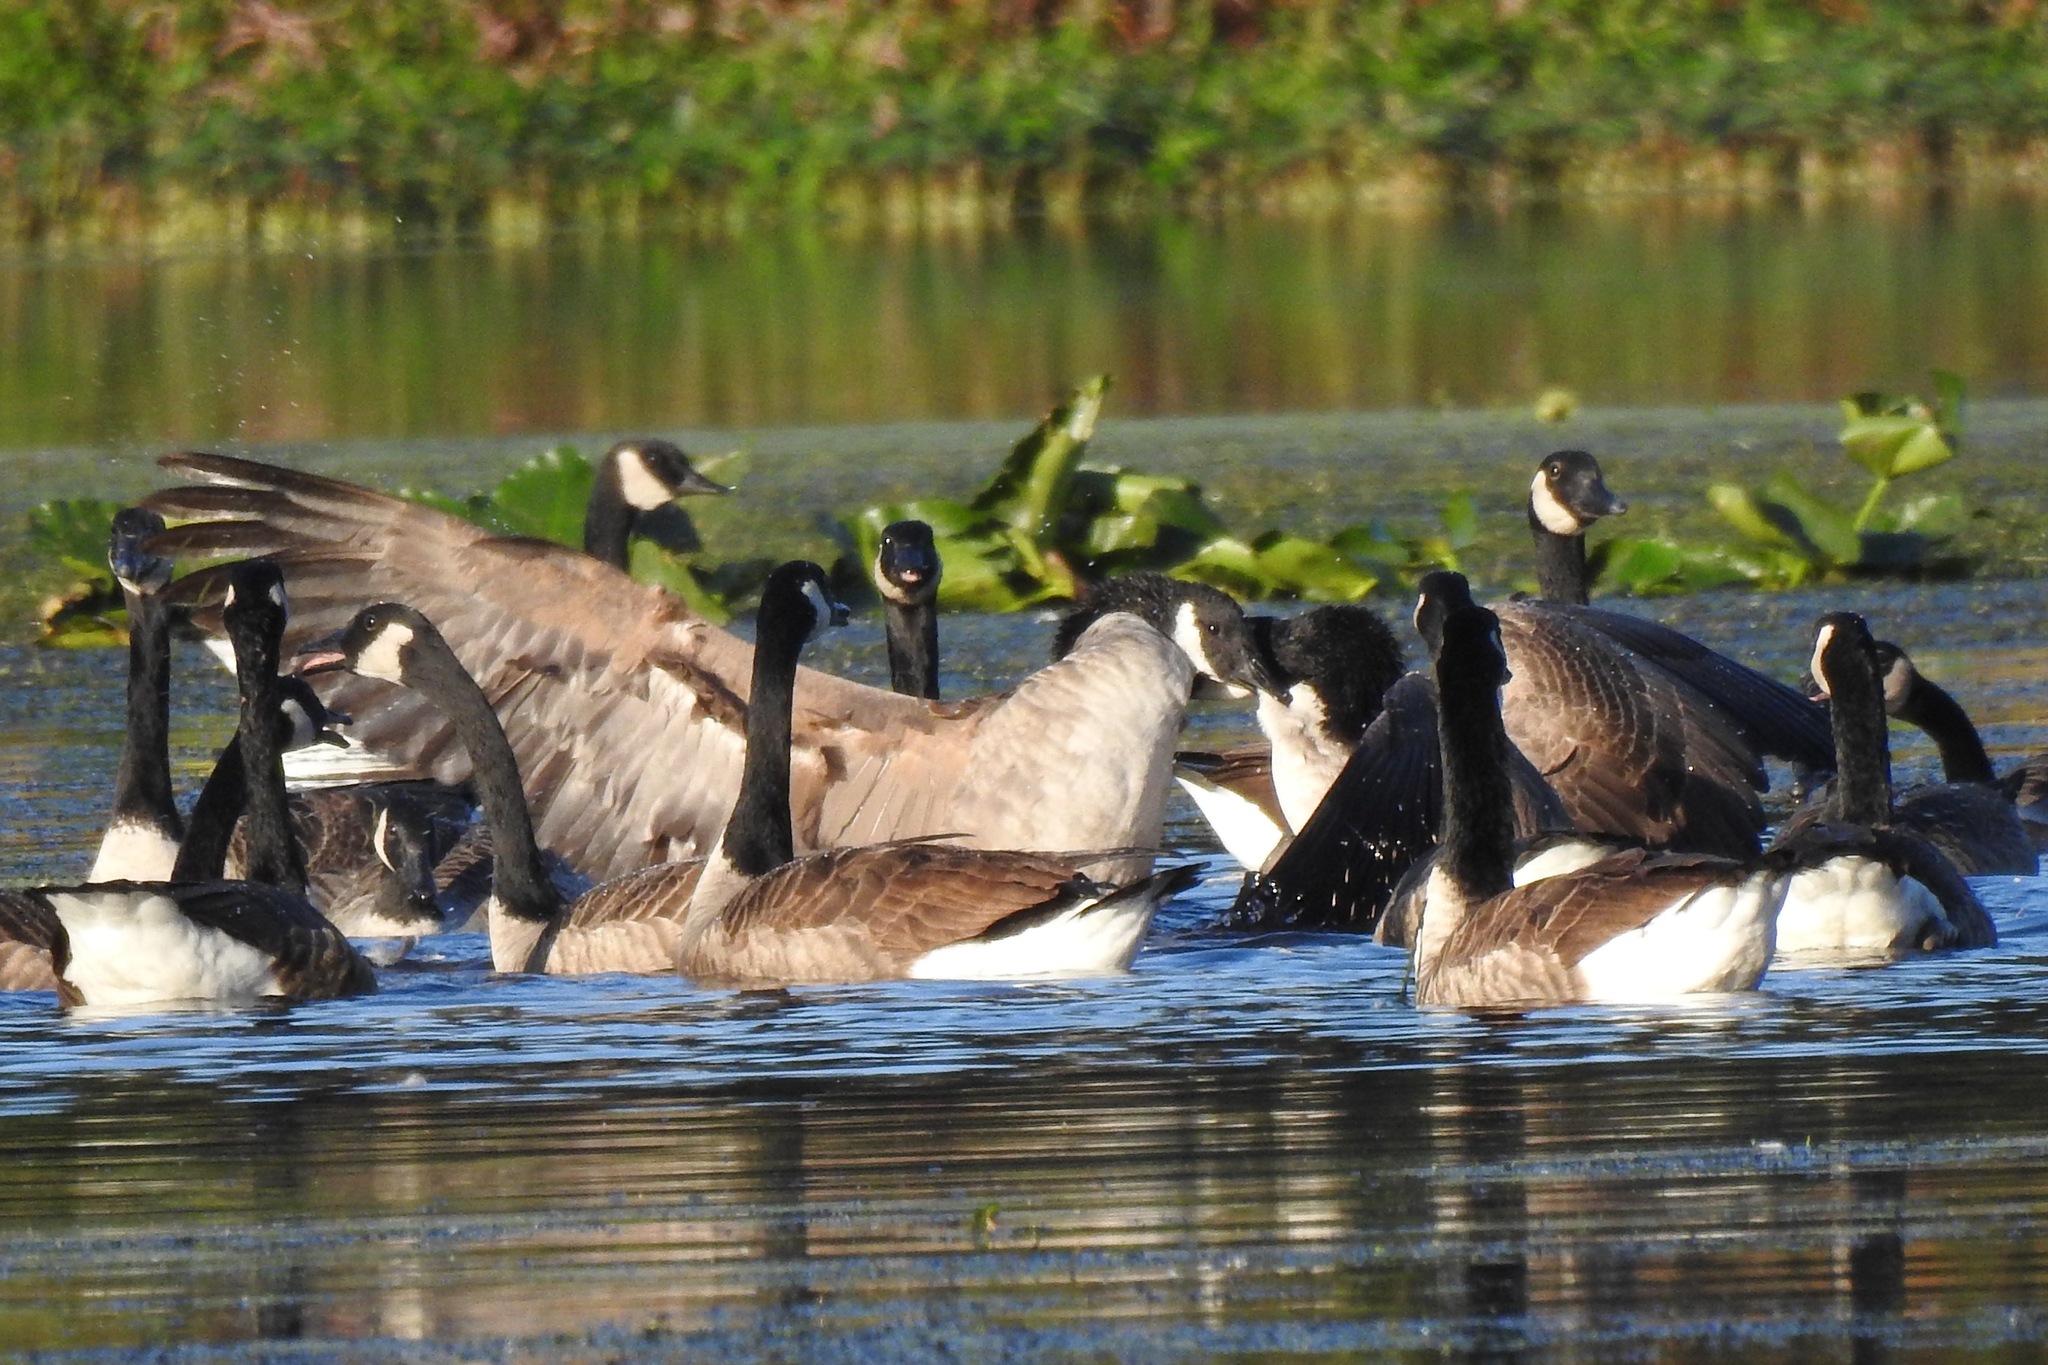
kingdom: Animalia
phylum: Chordata
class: Aves
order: Anseriformes
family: Anatidae
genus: Branta
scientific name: Branta canadensis
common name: Canada goose
